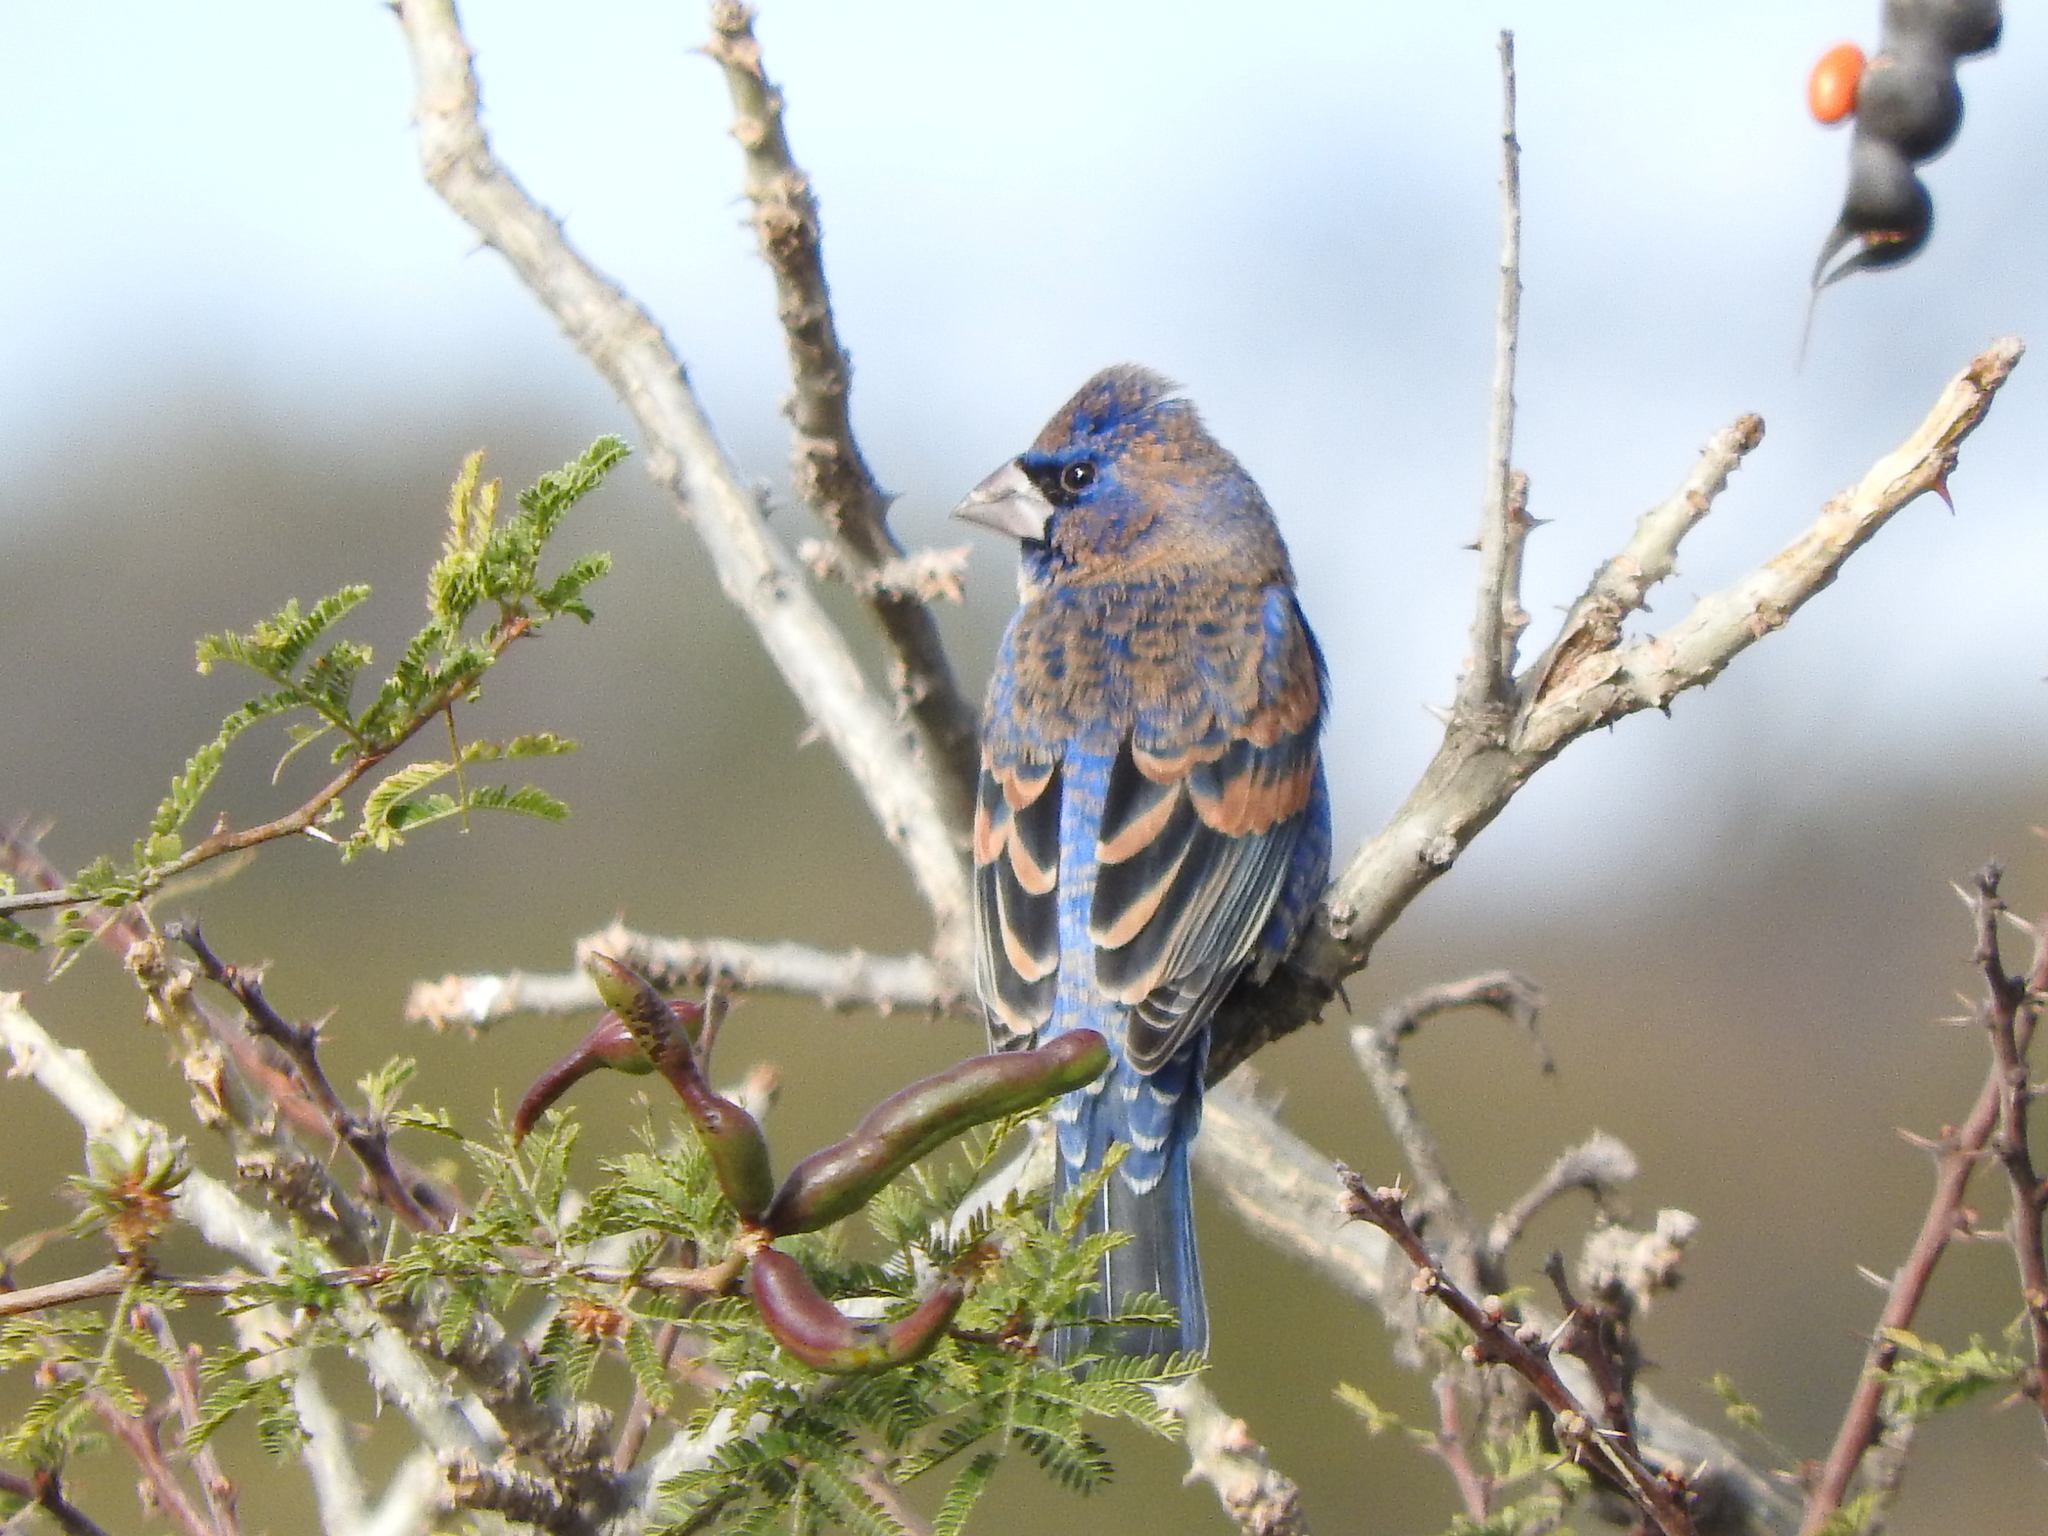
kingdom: Animalia
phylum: Chordata
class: Aves
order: Passeriformes
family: Cardinalidae
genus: Passerina
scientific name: Passerina caerulea
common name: Blue grosbeak
